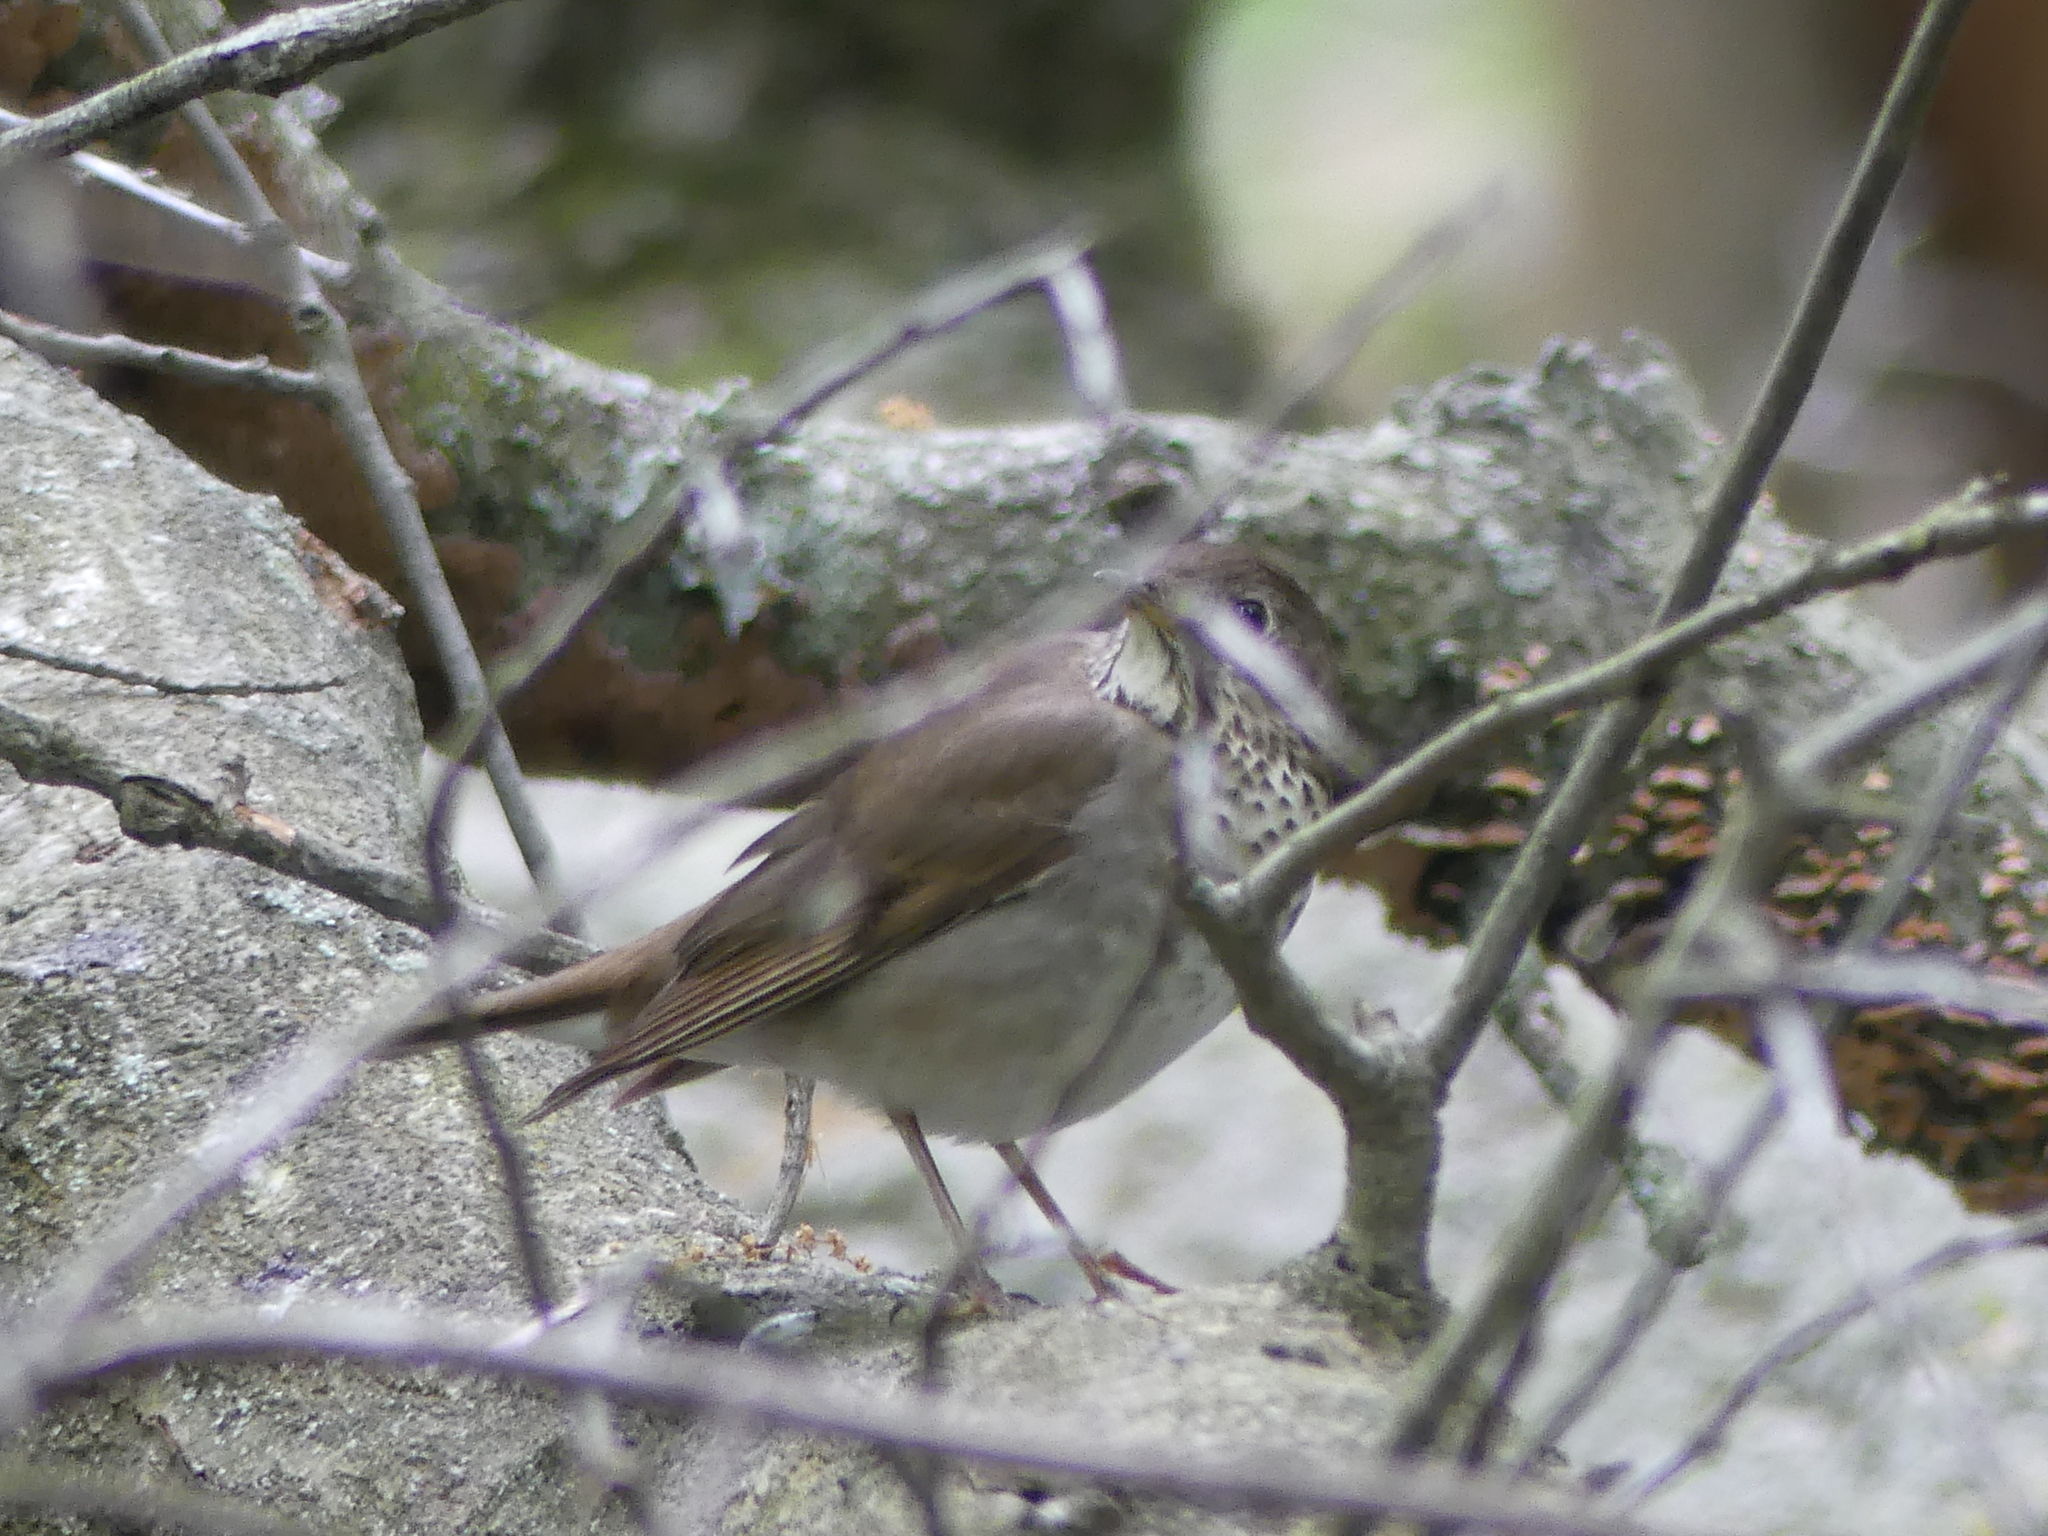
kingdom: Animalia
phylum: Chordata
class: Aves
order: Passeriformes
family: Turdidae
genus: Catharus
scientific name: Catharus
